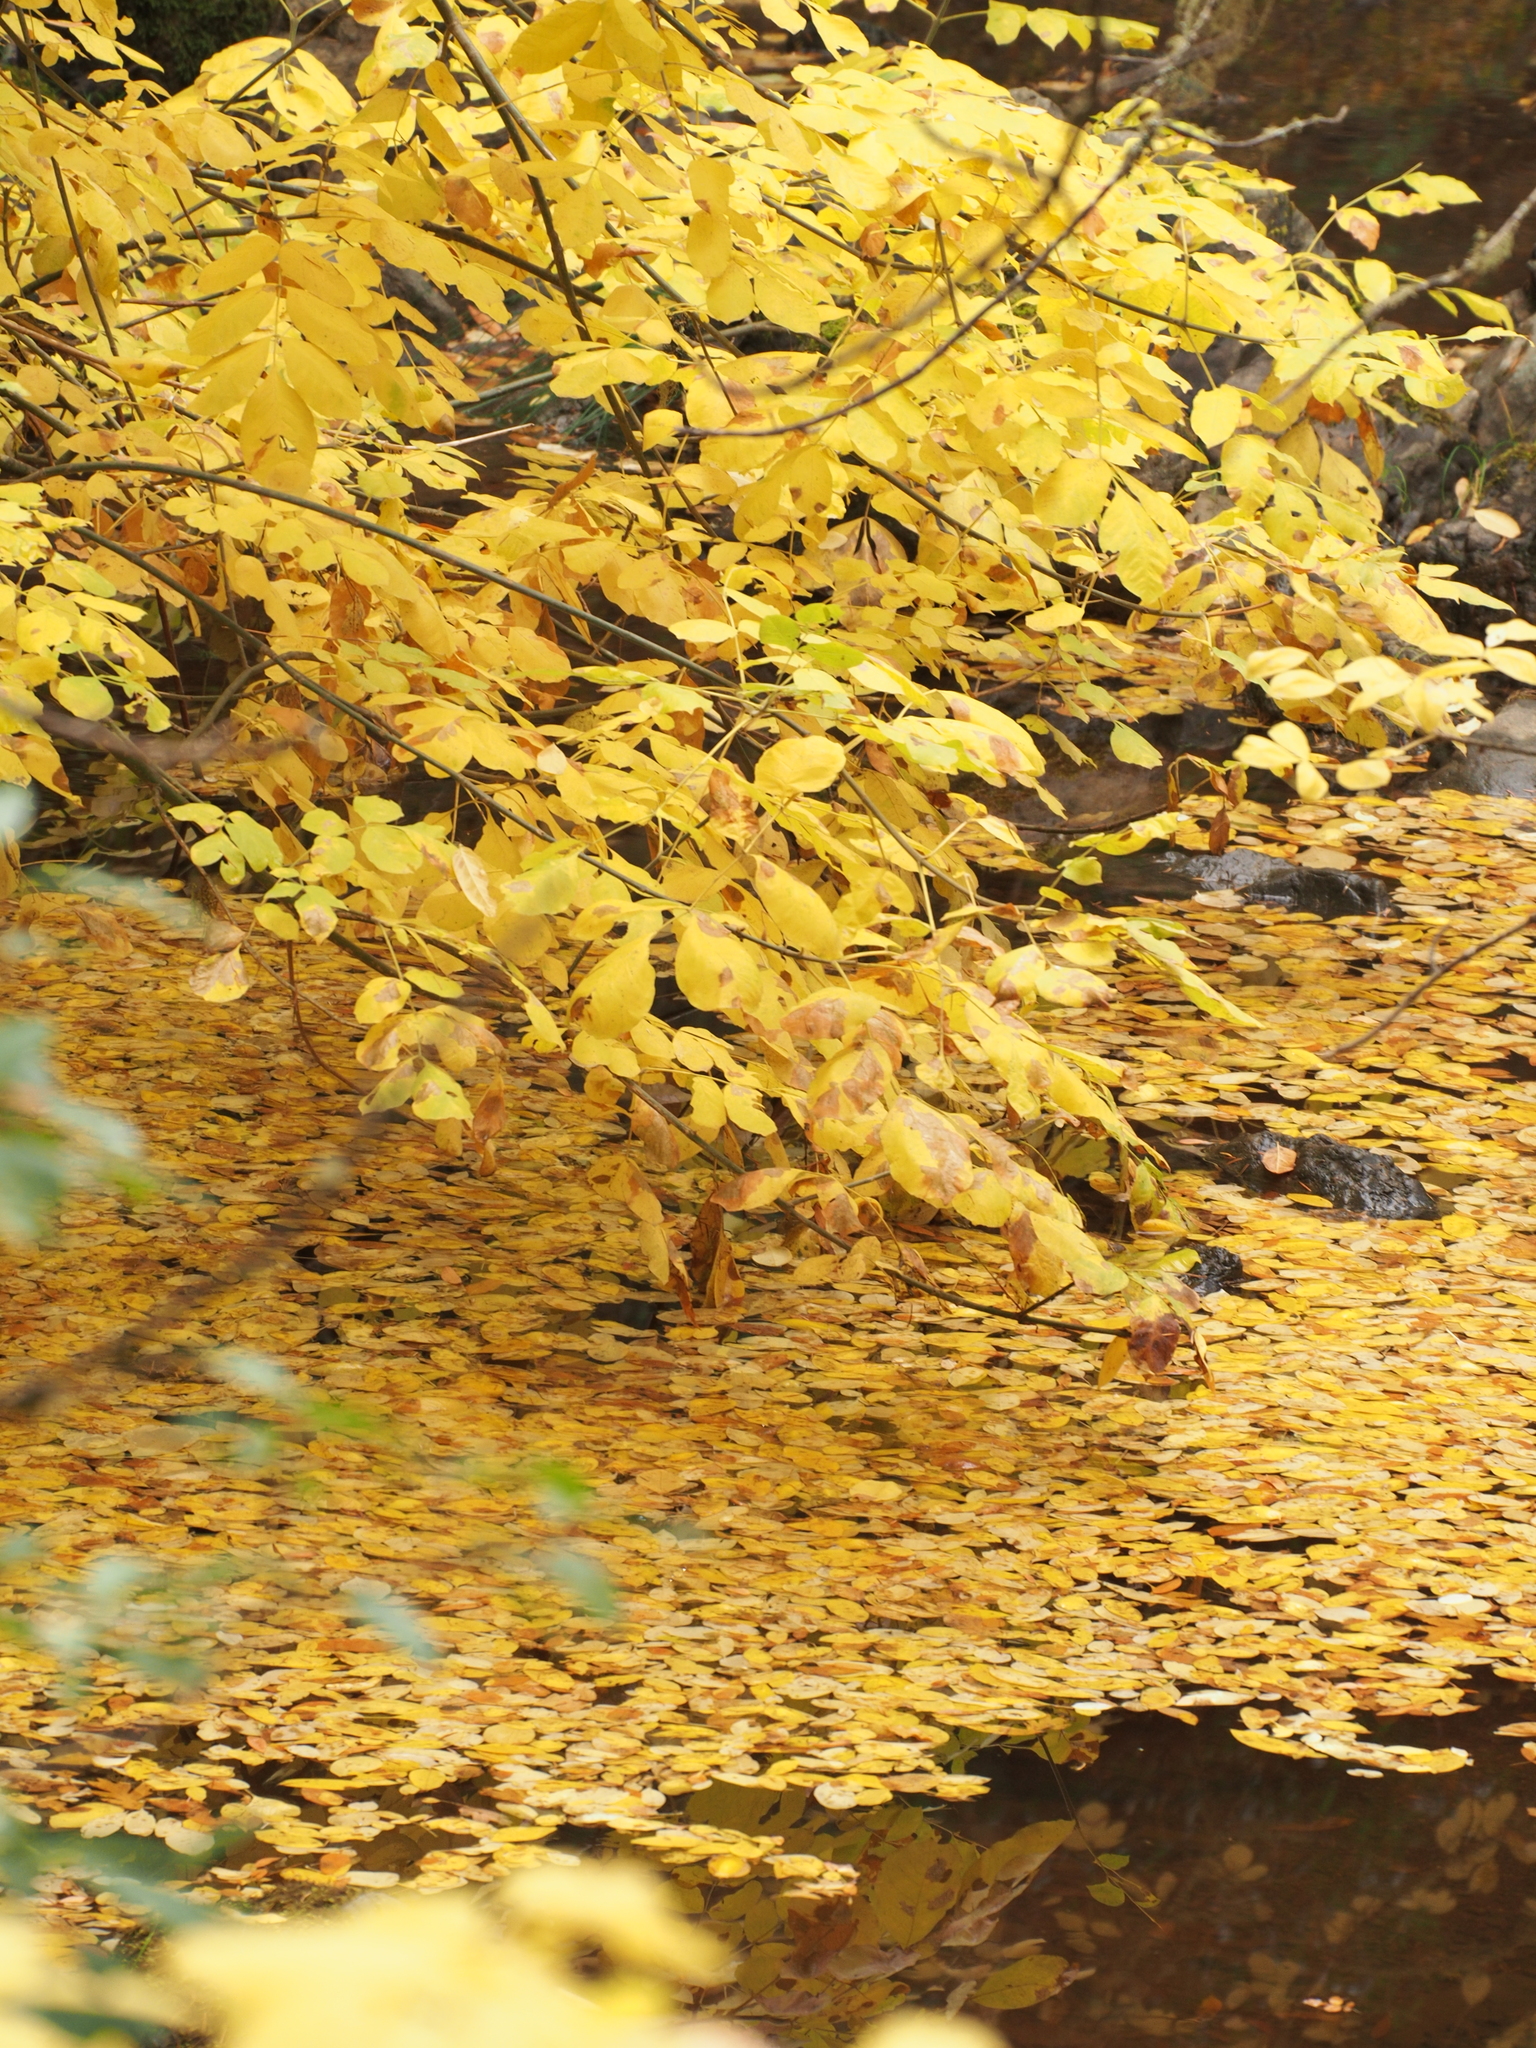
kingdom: Plantae
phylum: Tracheophyta
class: Magnoliopsida
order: Lamiales
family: Oleaceae
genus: Fraxinus
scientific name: Fraxinus latifolia
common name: Oregon ash
